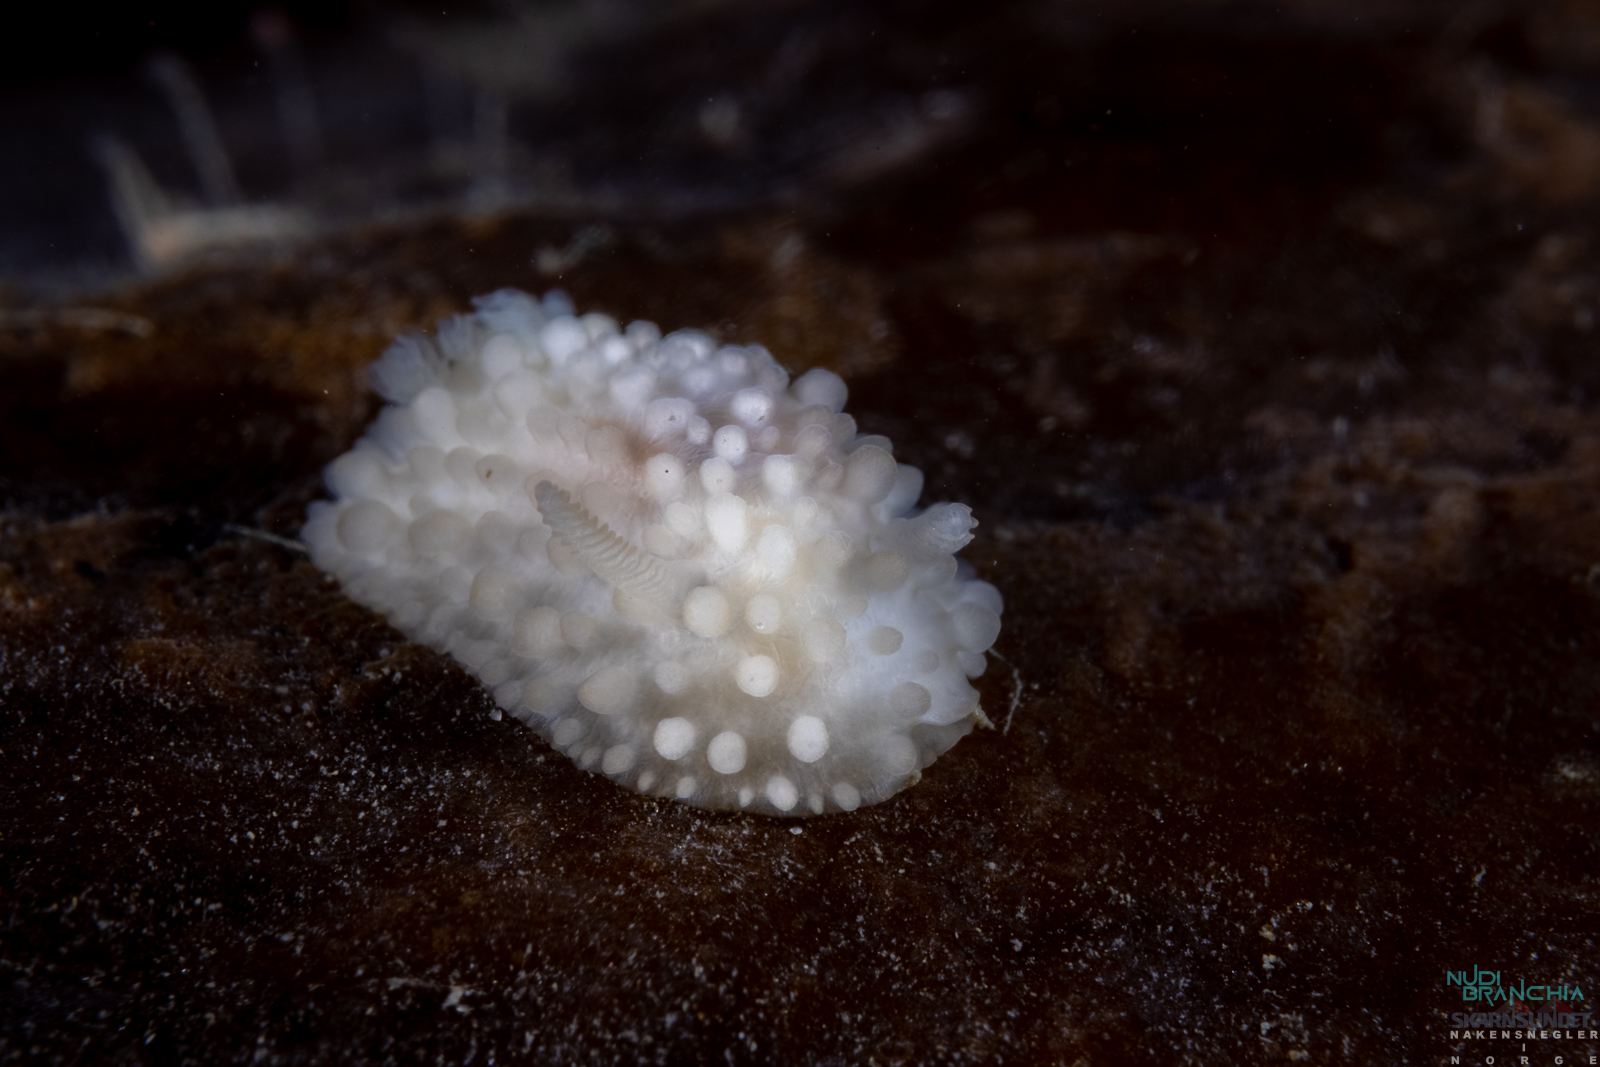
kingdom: Animalia
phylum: Mollusca
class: Gastropoda
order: Nudibranchia
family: Onchidorididae
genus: Adalaria
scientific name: Adalaria proxima
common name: False doris
